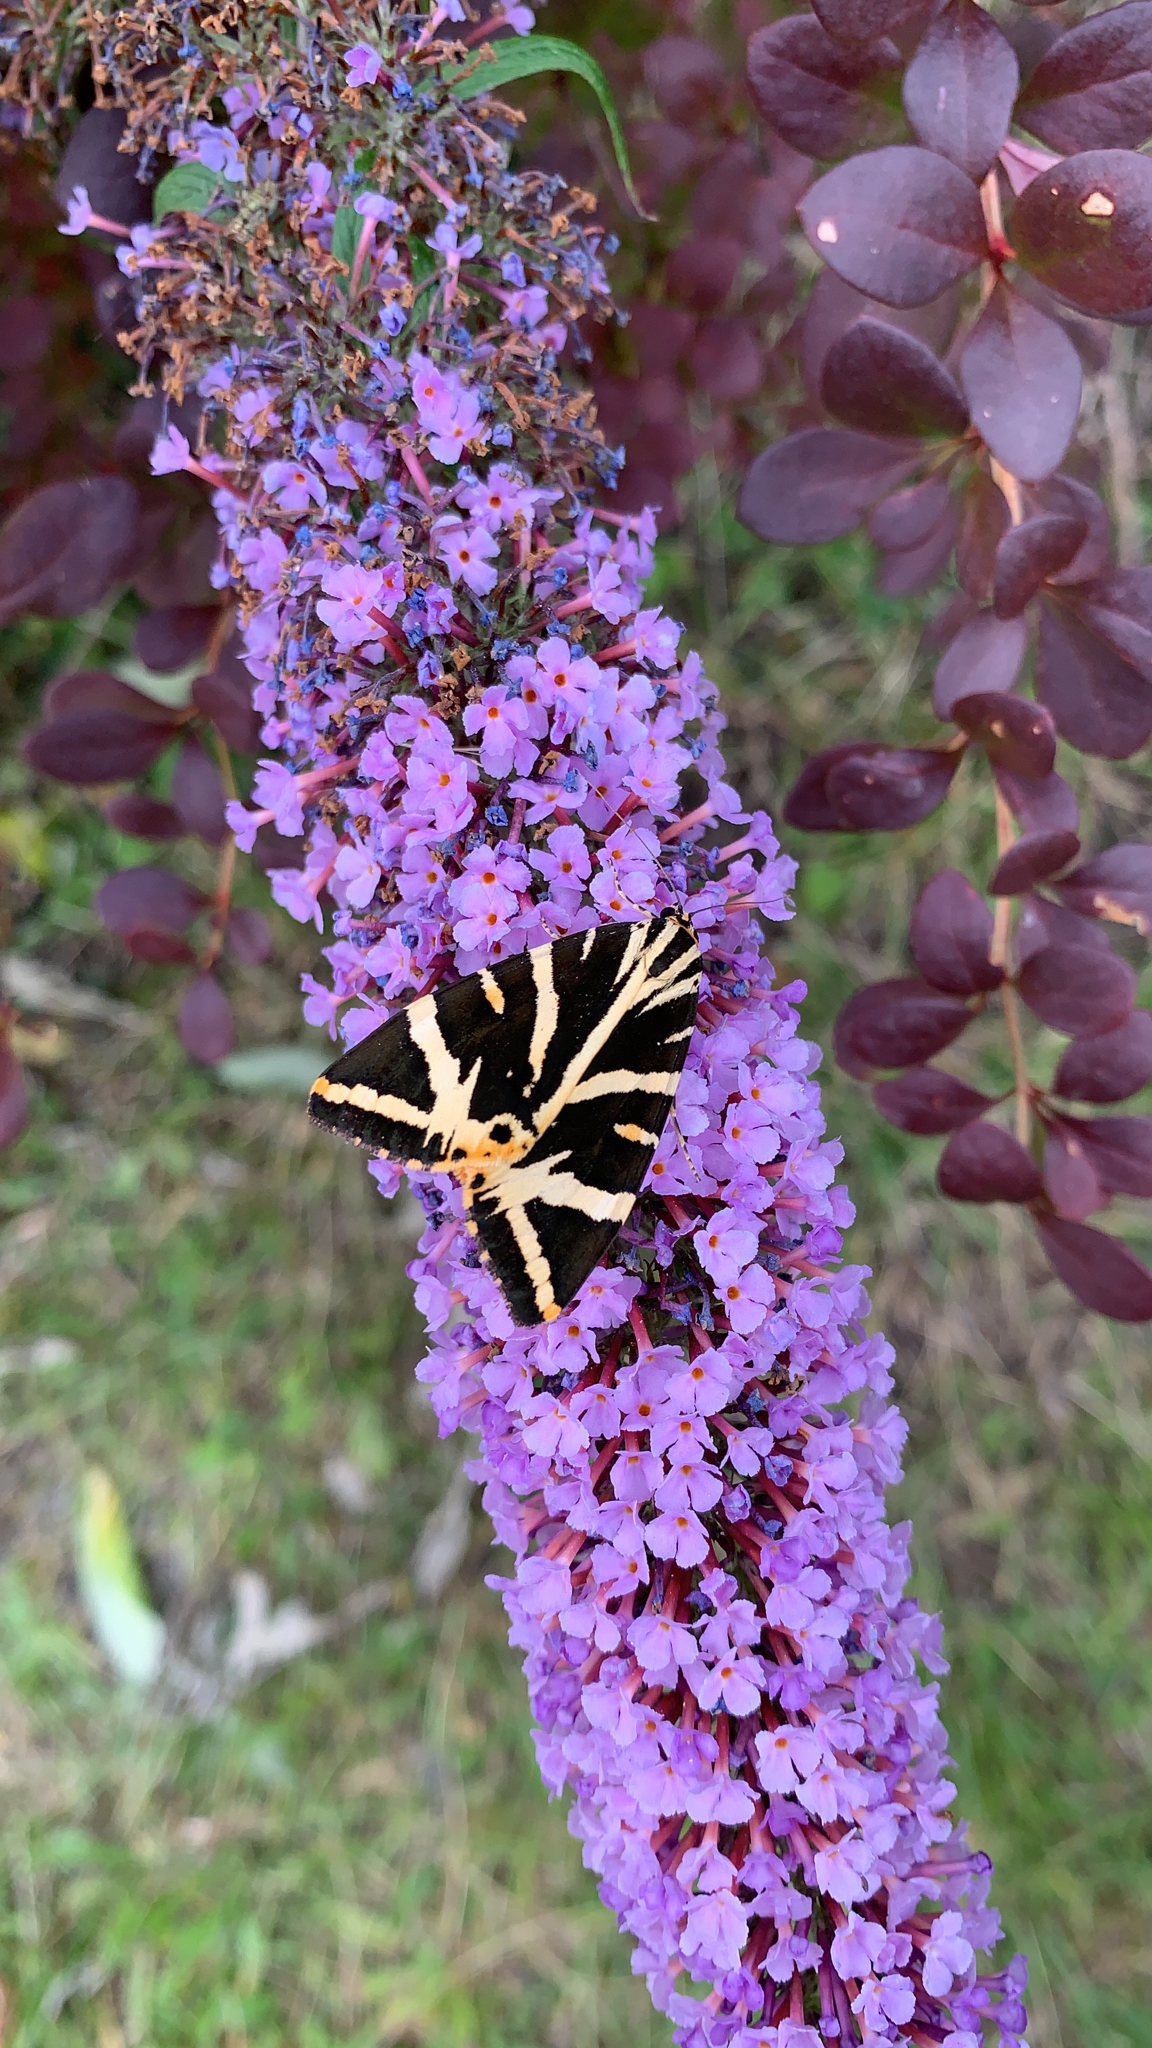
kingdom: Animalia
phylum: Arthropoda
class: Insecta
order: Lepidoptera
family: Erebidae
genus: Euplagia
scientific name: Euplagia quadripunctaria
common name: Jersey tiger
